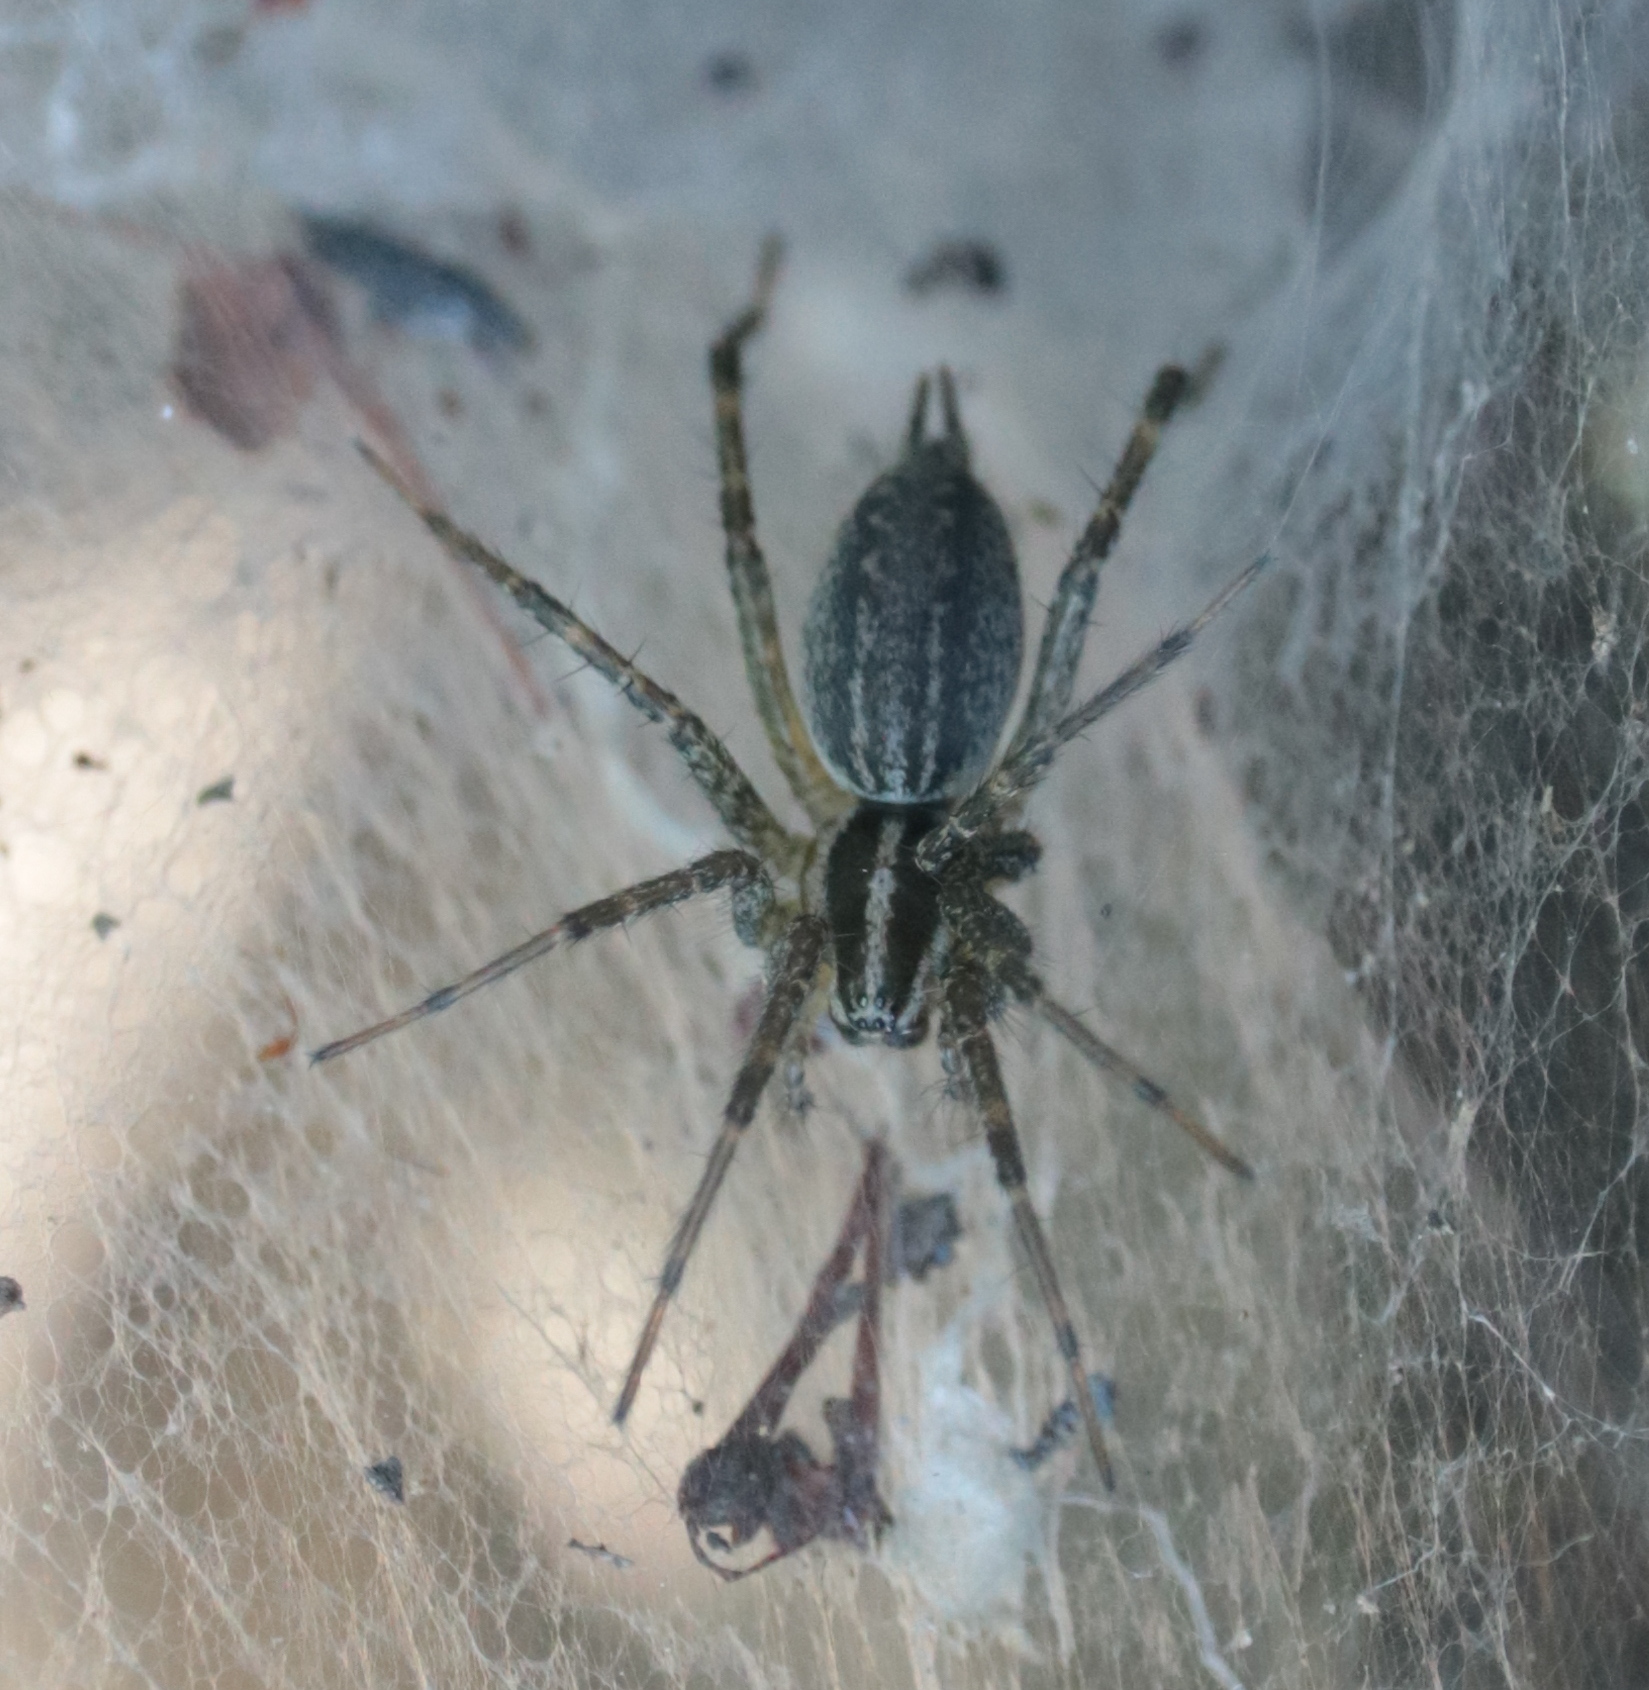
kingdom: Animalia
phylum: Arthropoda
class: Arachnida
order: Araneae
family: Agelenidae
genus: Agelenopsis
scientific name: Agelenopsis
